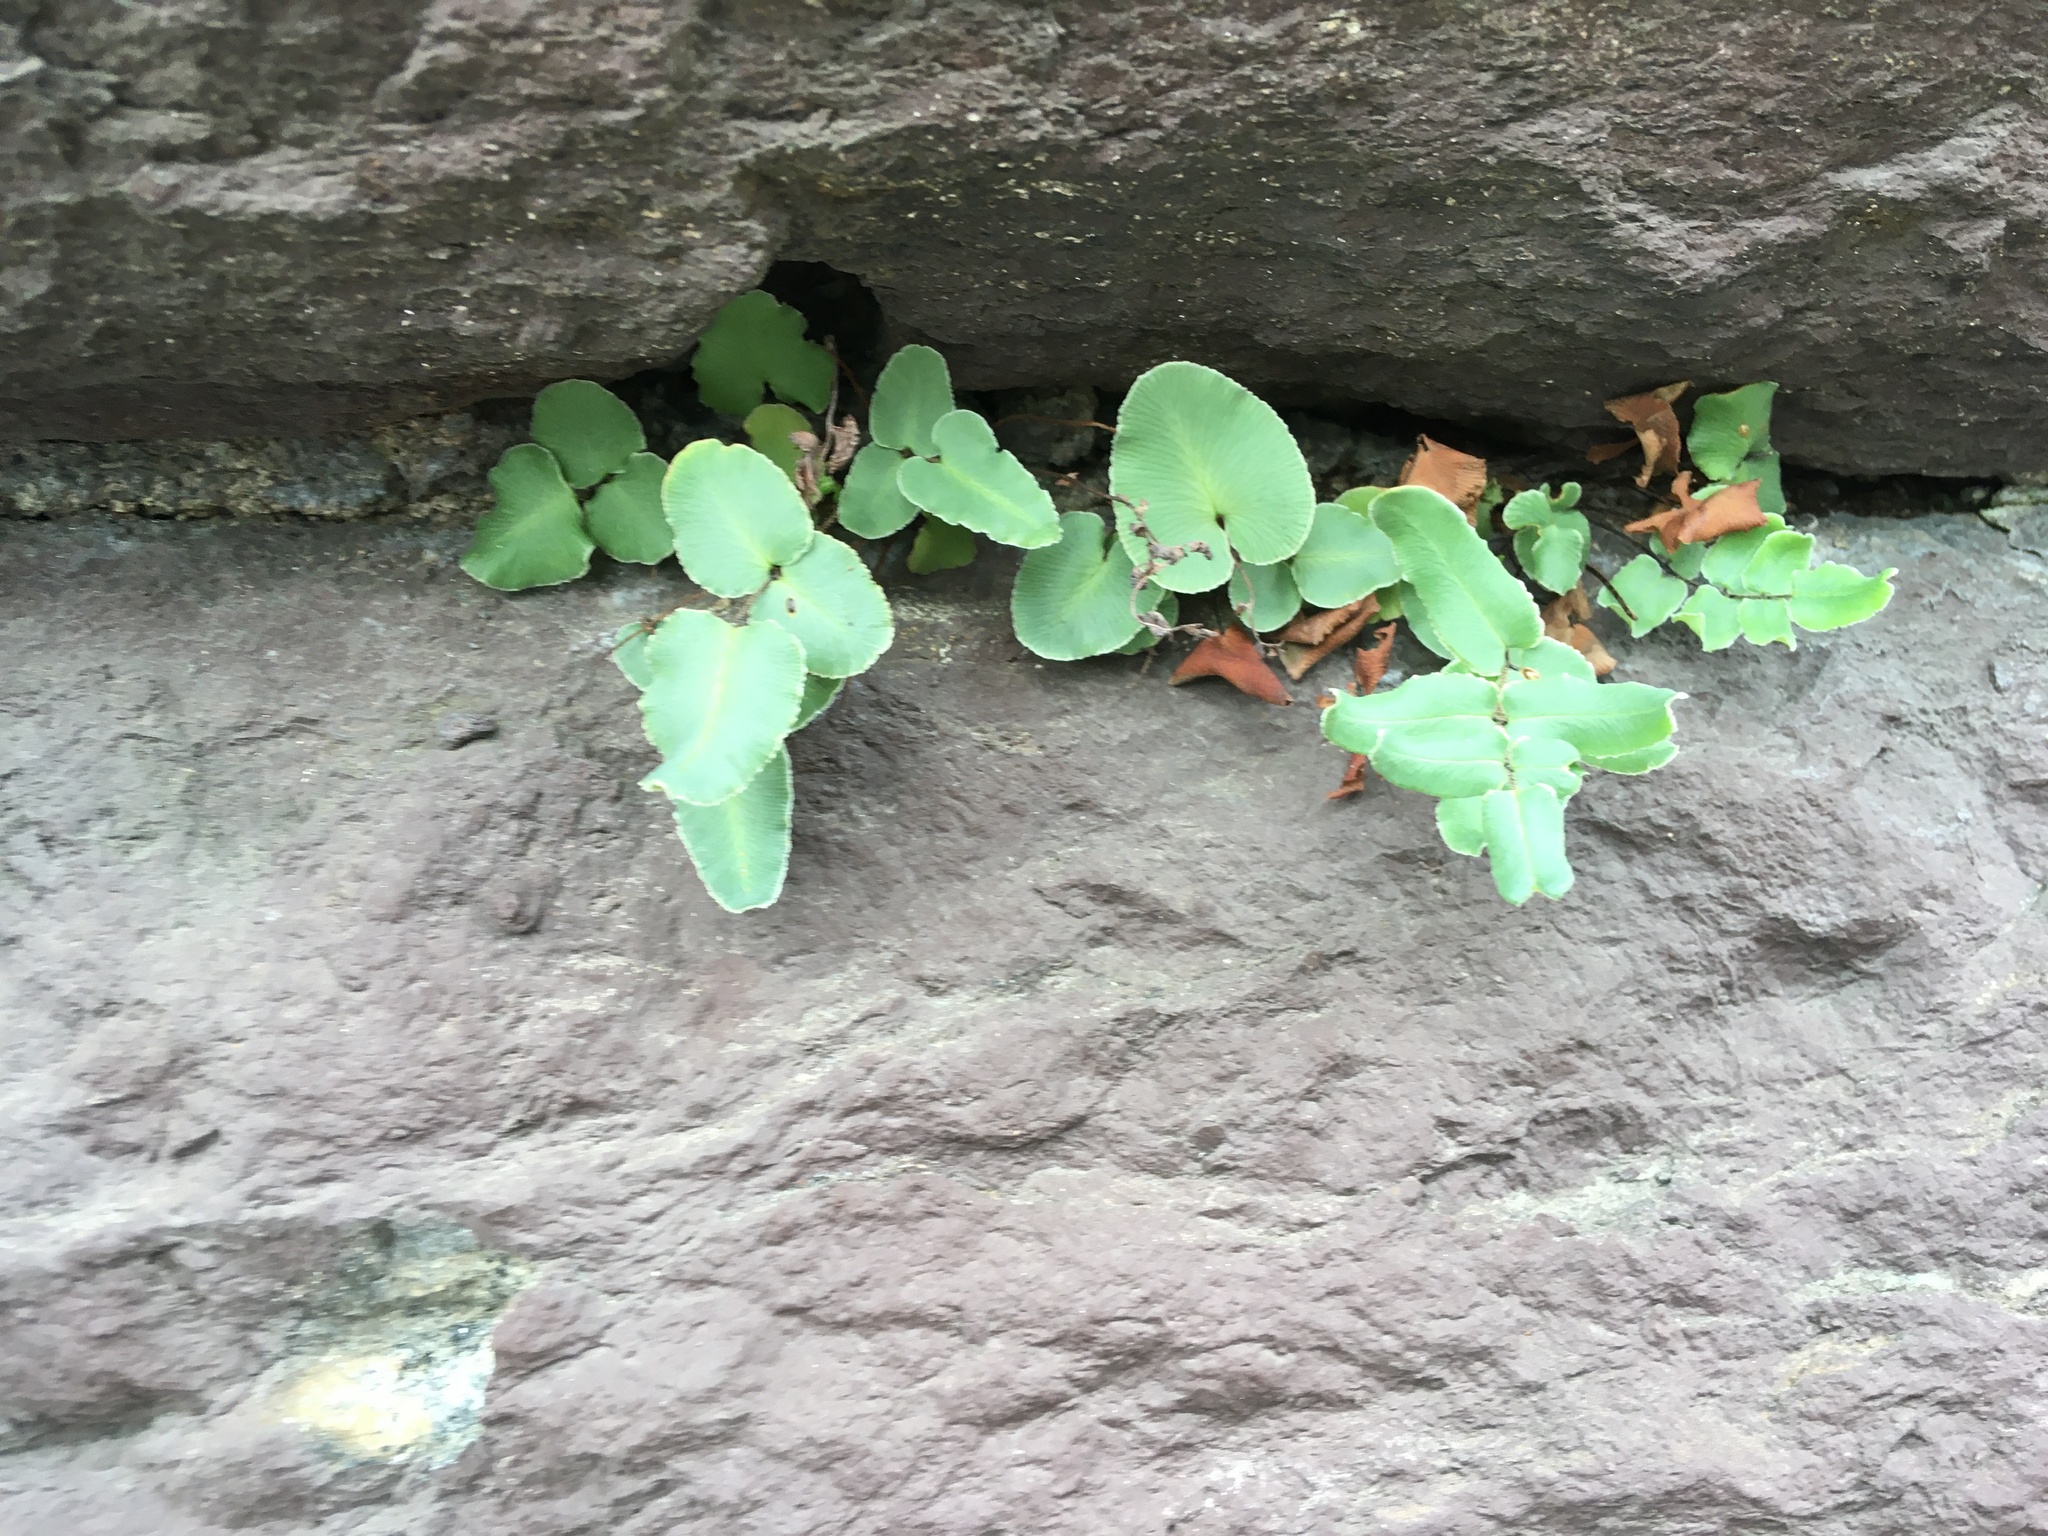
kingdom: Plantae
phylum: Tracheophyta
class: Polypodiopsida
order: Polypodiales
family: Pteridaceae
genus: Pellaea
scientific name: Pellaea atropurpurea
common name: Hairy cliffbrake
